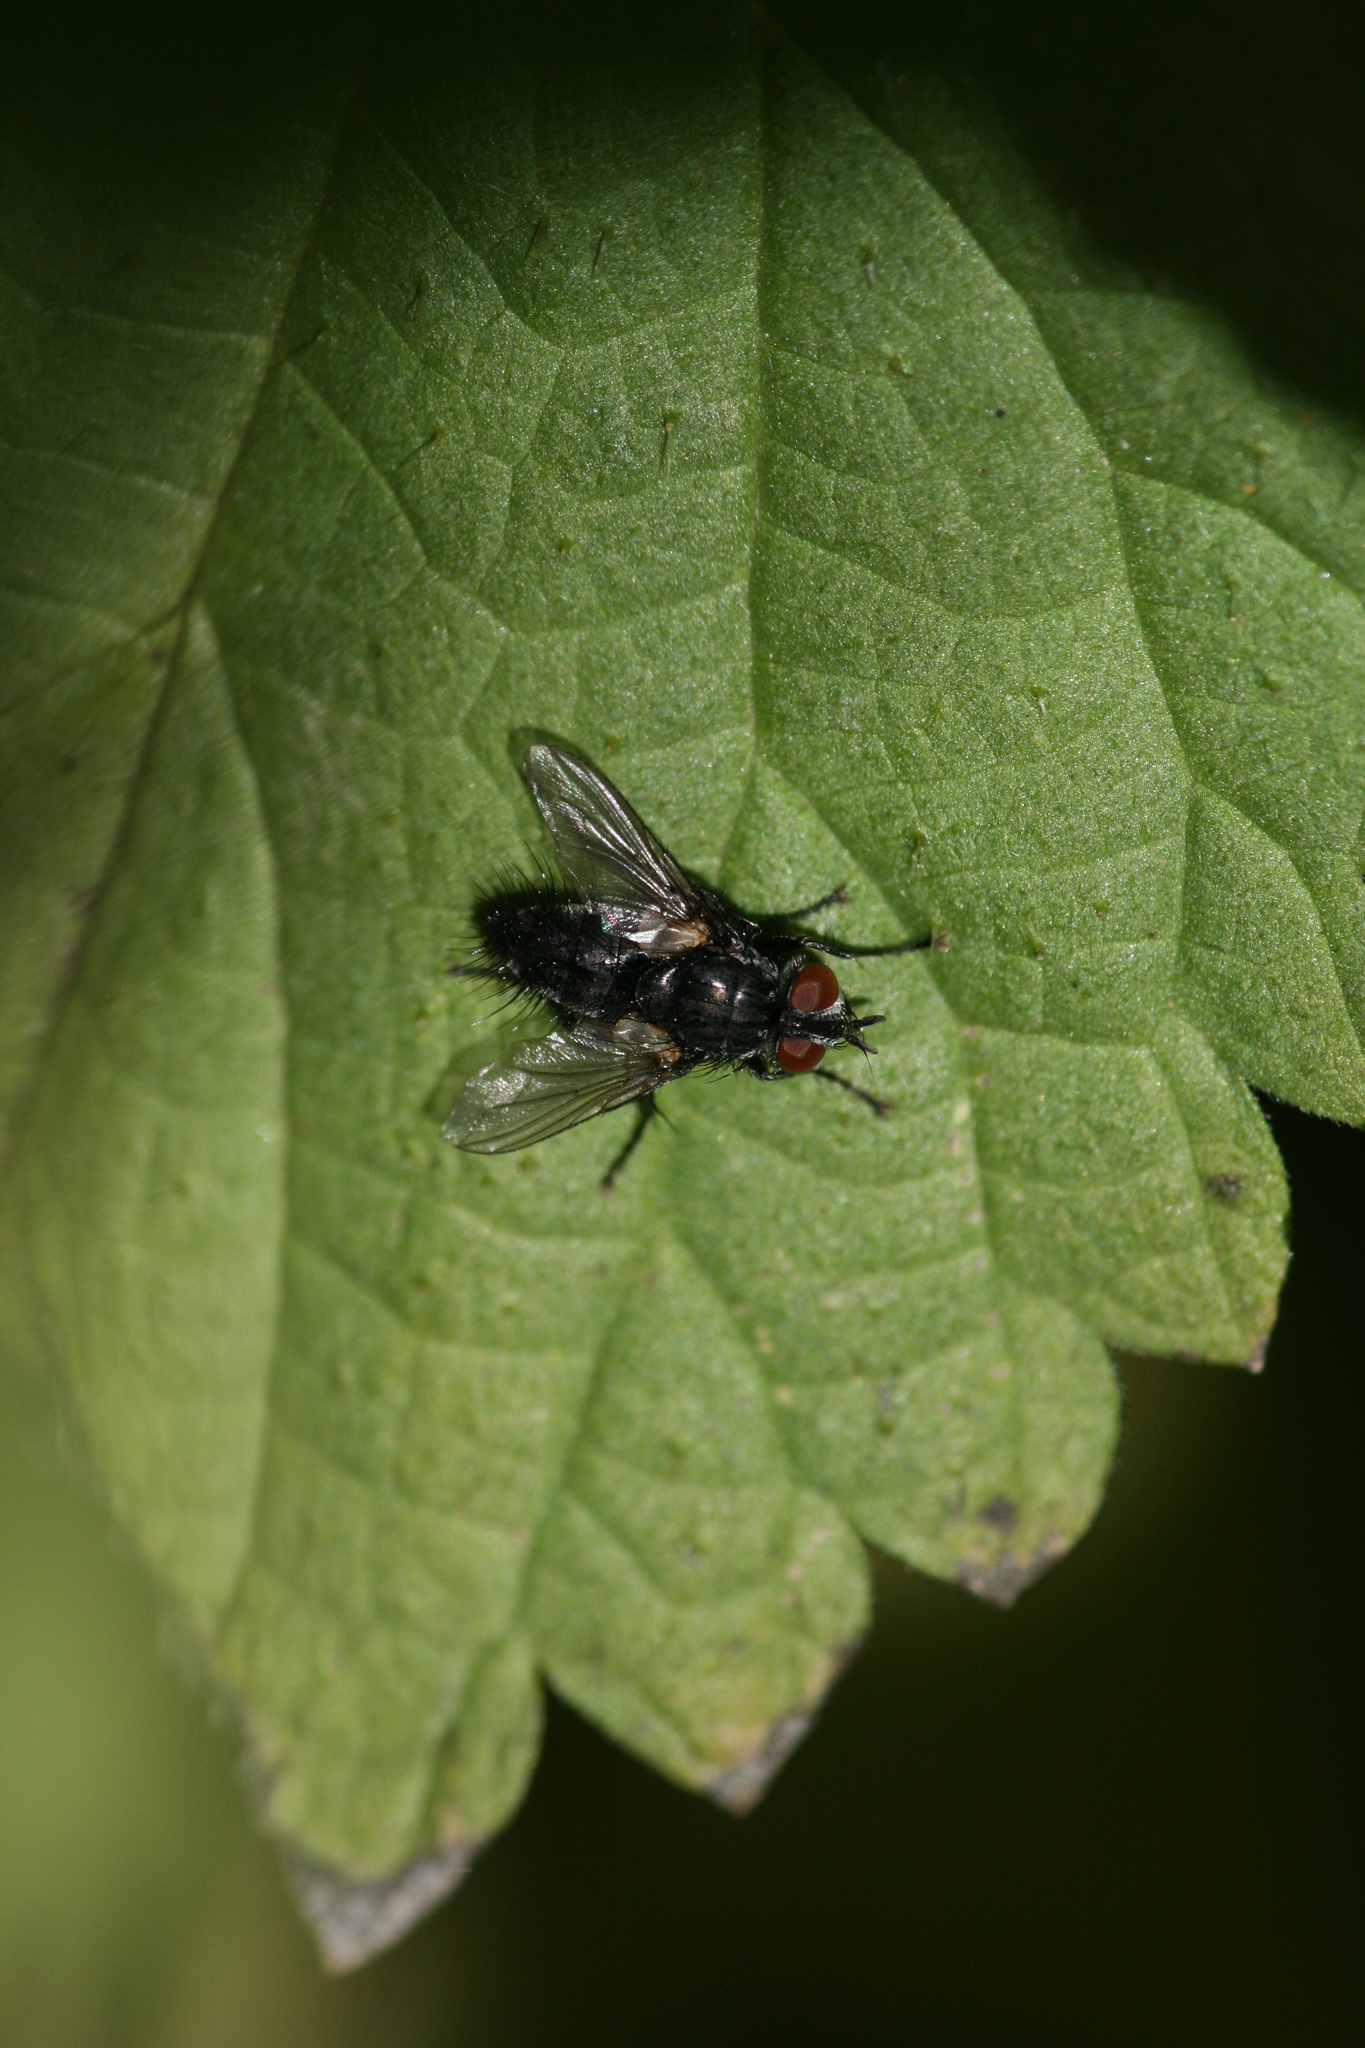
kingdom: Animalia
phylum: Arthropoda
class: Insecta
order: Diptera
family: Tachinidae
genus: Voria
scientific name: Voria ruralis
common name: Parasitic fly
